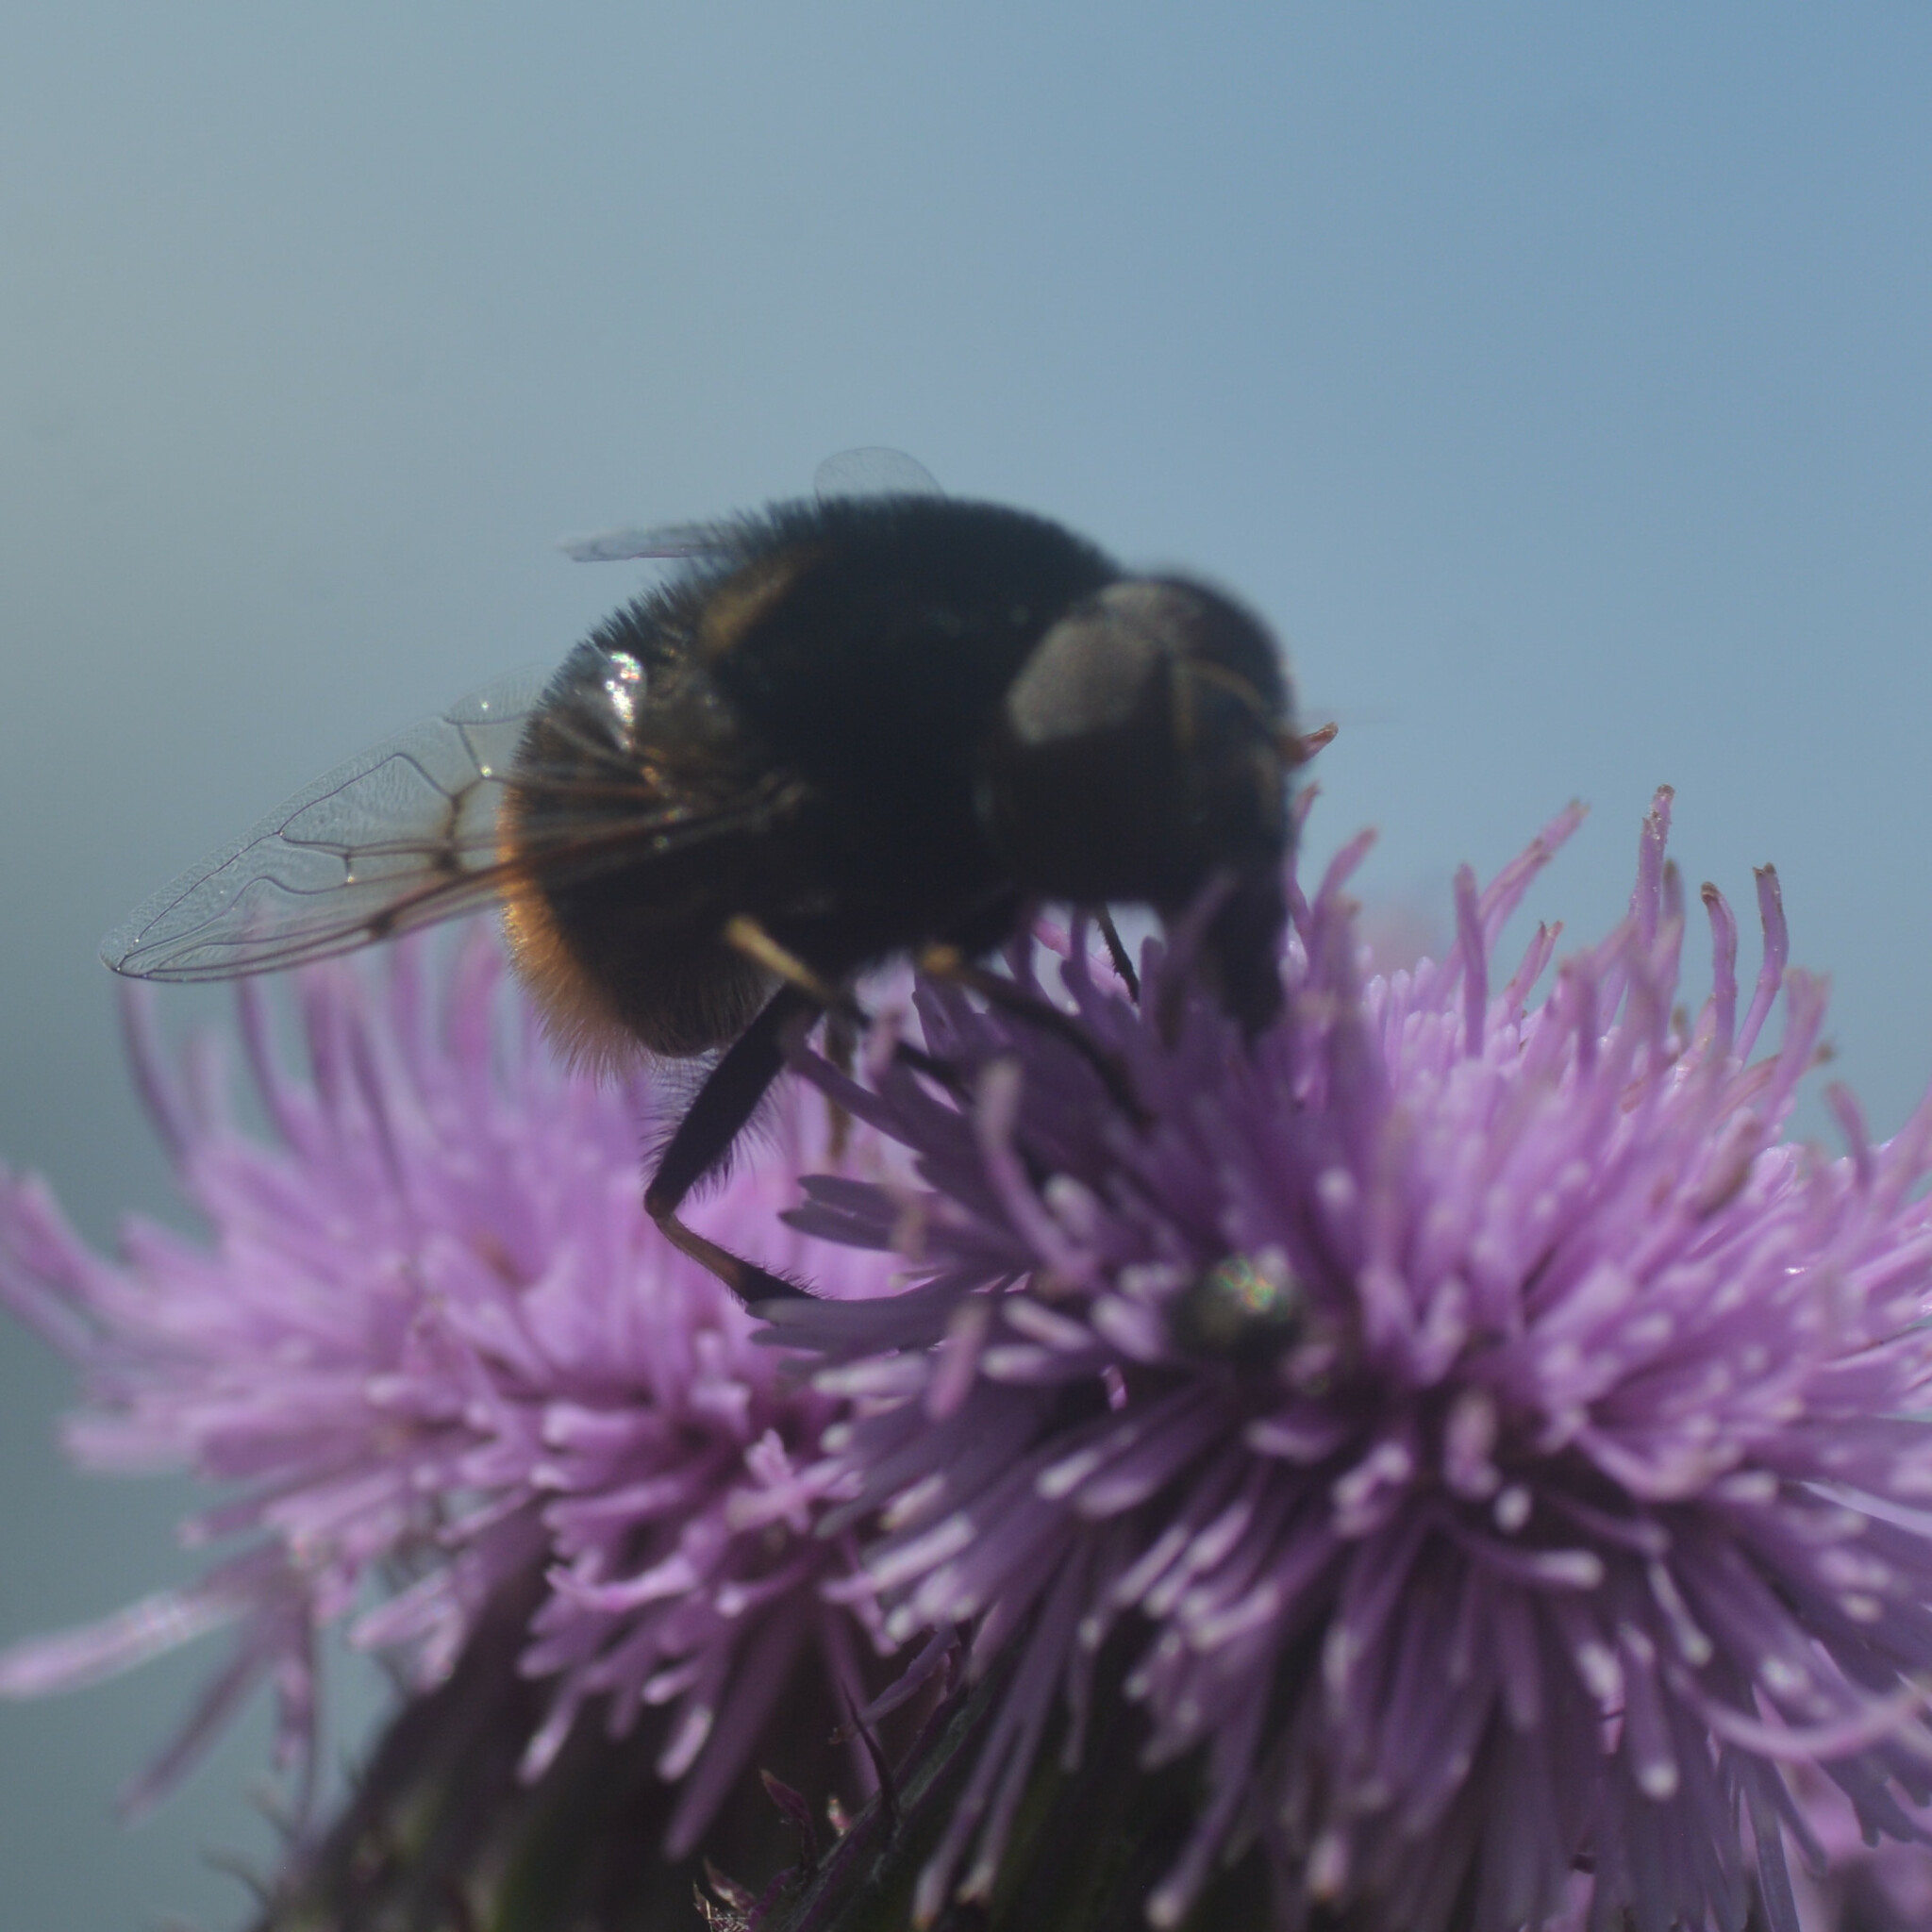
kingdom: Animalia
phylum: Arthropoda
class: Insecta
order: Diptera
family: Syrphidae
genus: Eristalis
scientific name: Eristalis intricaria
